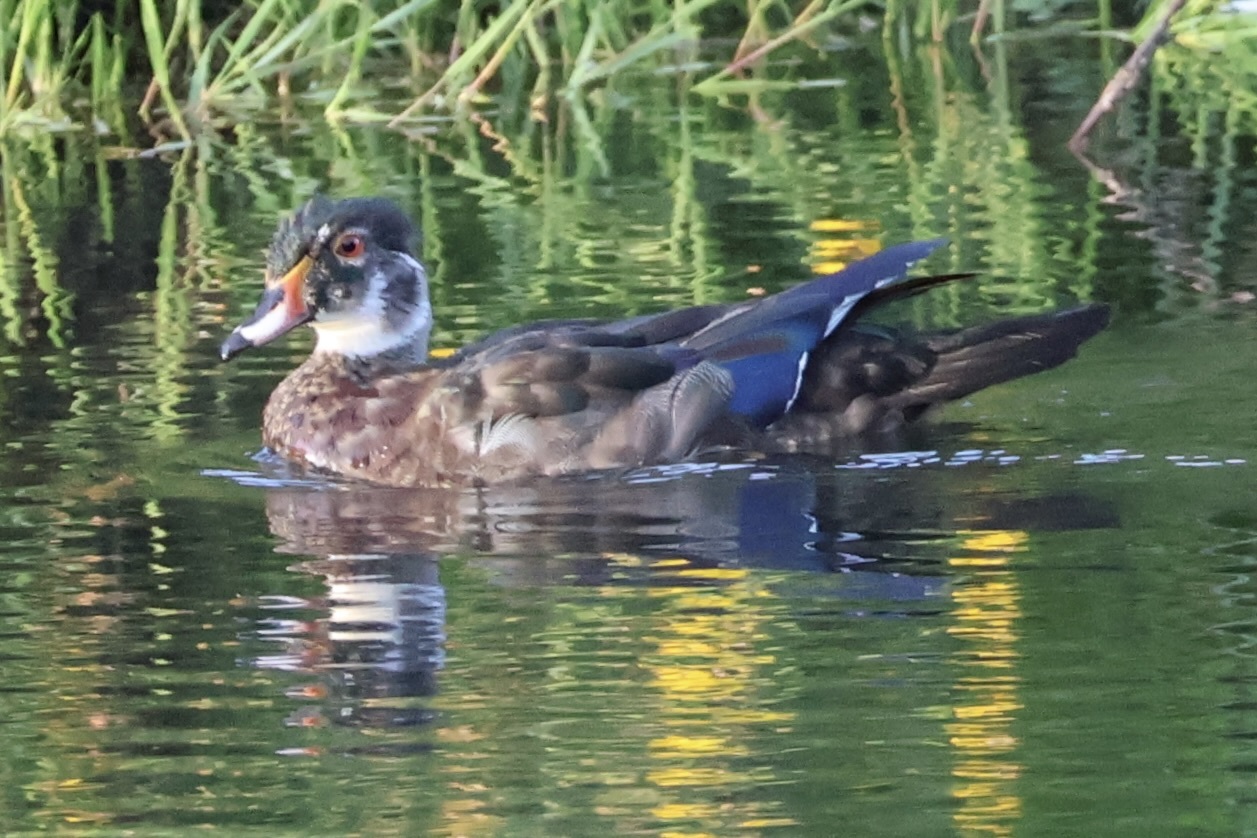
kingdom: Animalia
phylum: Chordata
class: Aves
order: Anseriformes
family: Anatidae
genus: Aix
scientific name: Aix sponsa
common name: Wood duck
